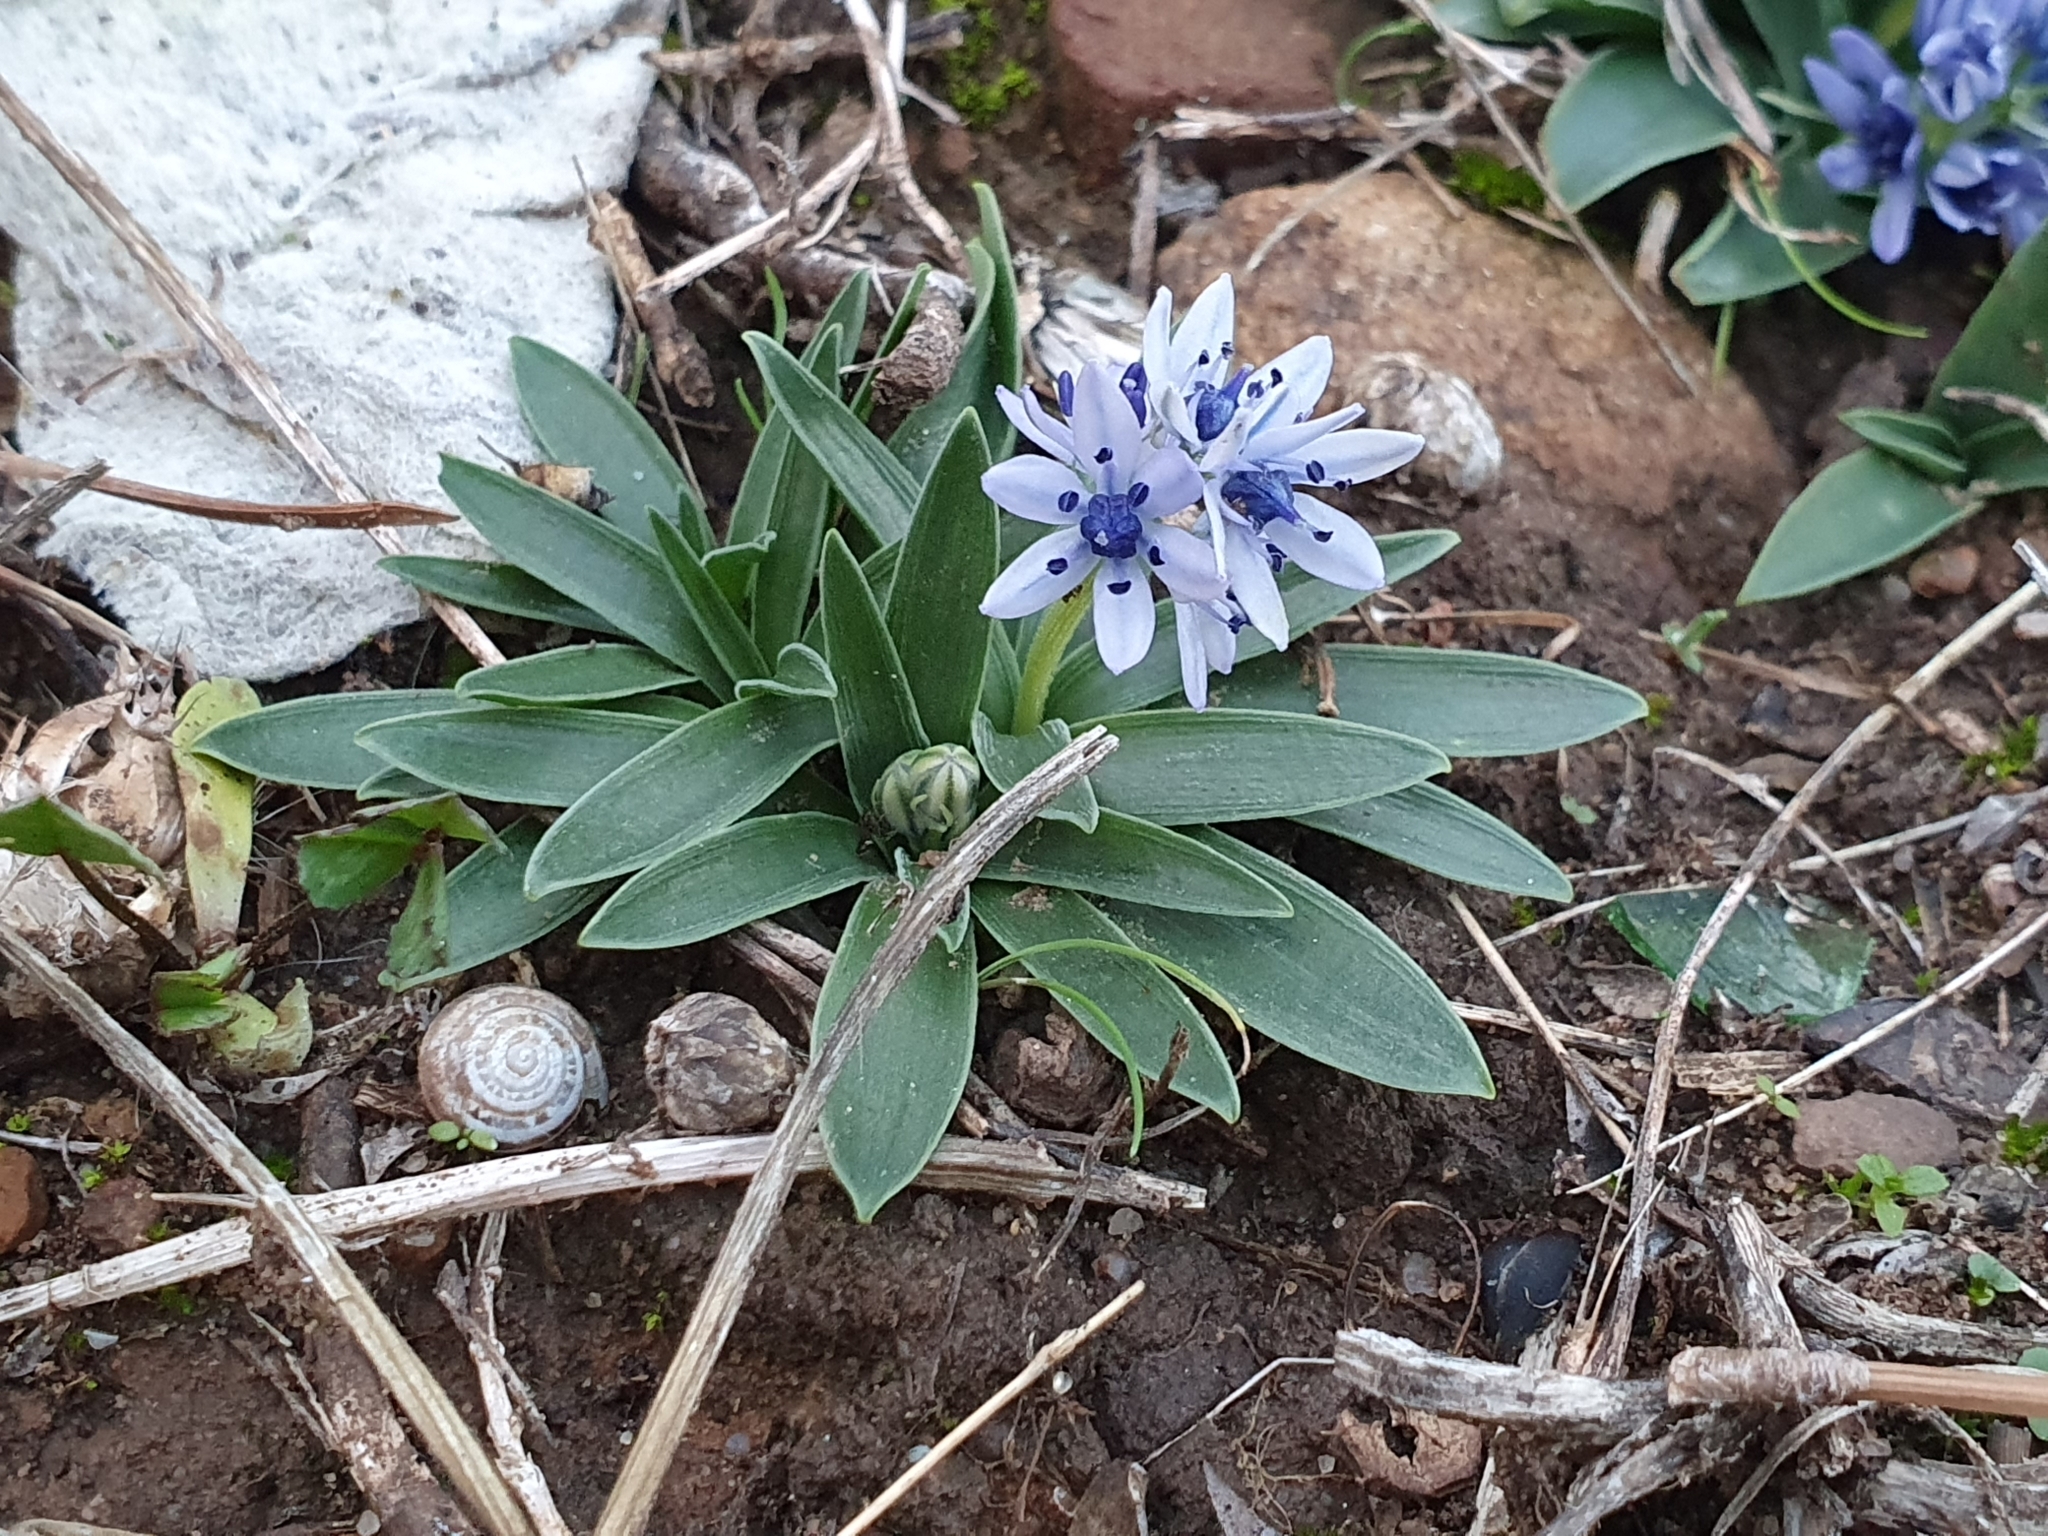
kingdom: Plantae
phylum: Tracheophyta
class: Liliopsida
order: Asparagales
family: Asparagaceae
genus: Hyacinthoides
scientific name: Hyacinthoides lingulata
